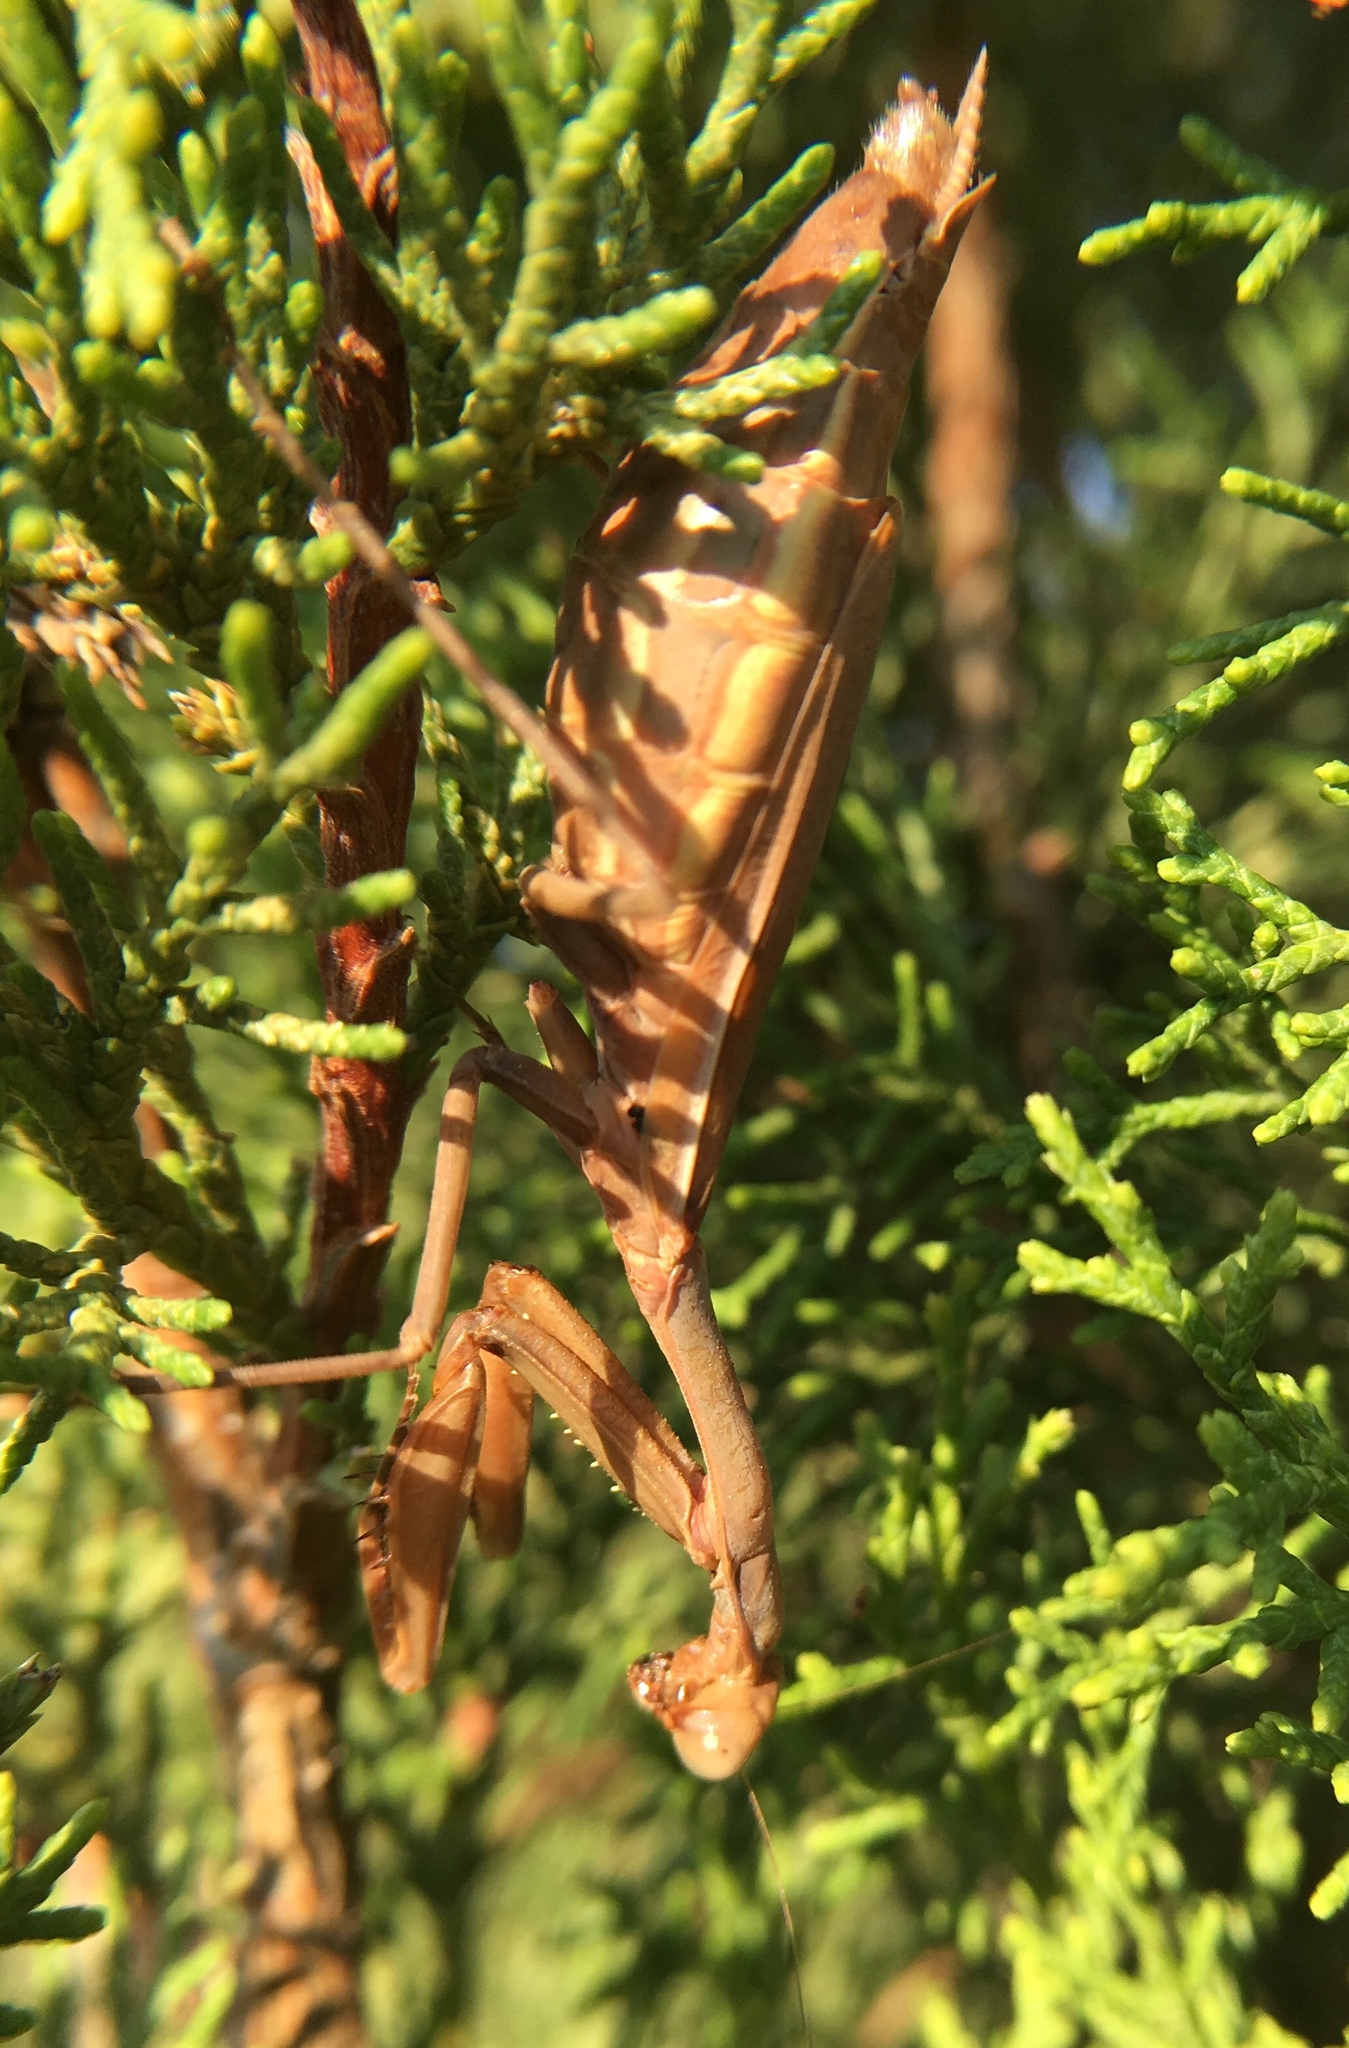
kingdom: Animalia
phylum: Arthropoda
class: Insecta
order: Mantodea
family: Eremiaphilidae
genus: Iris
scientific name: Iris oratoria
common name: Mediterranean mantis
